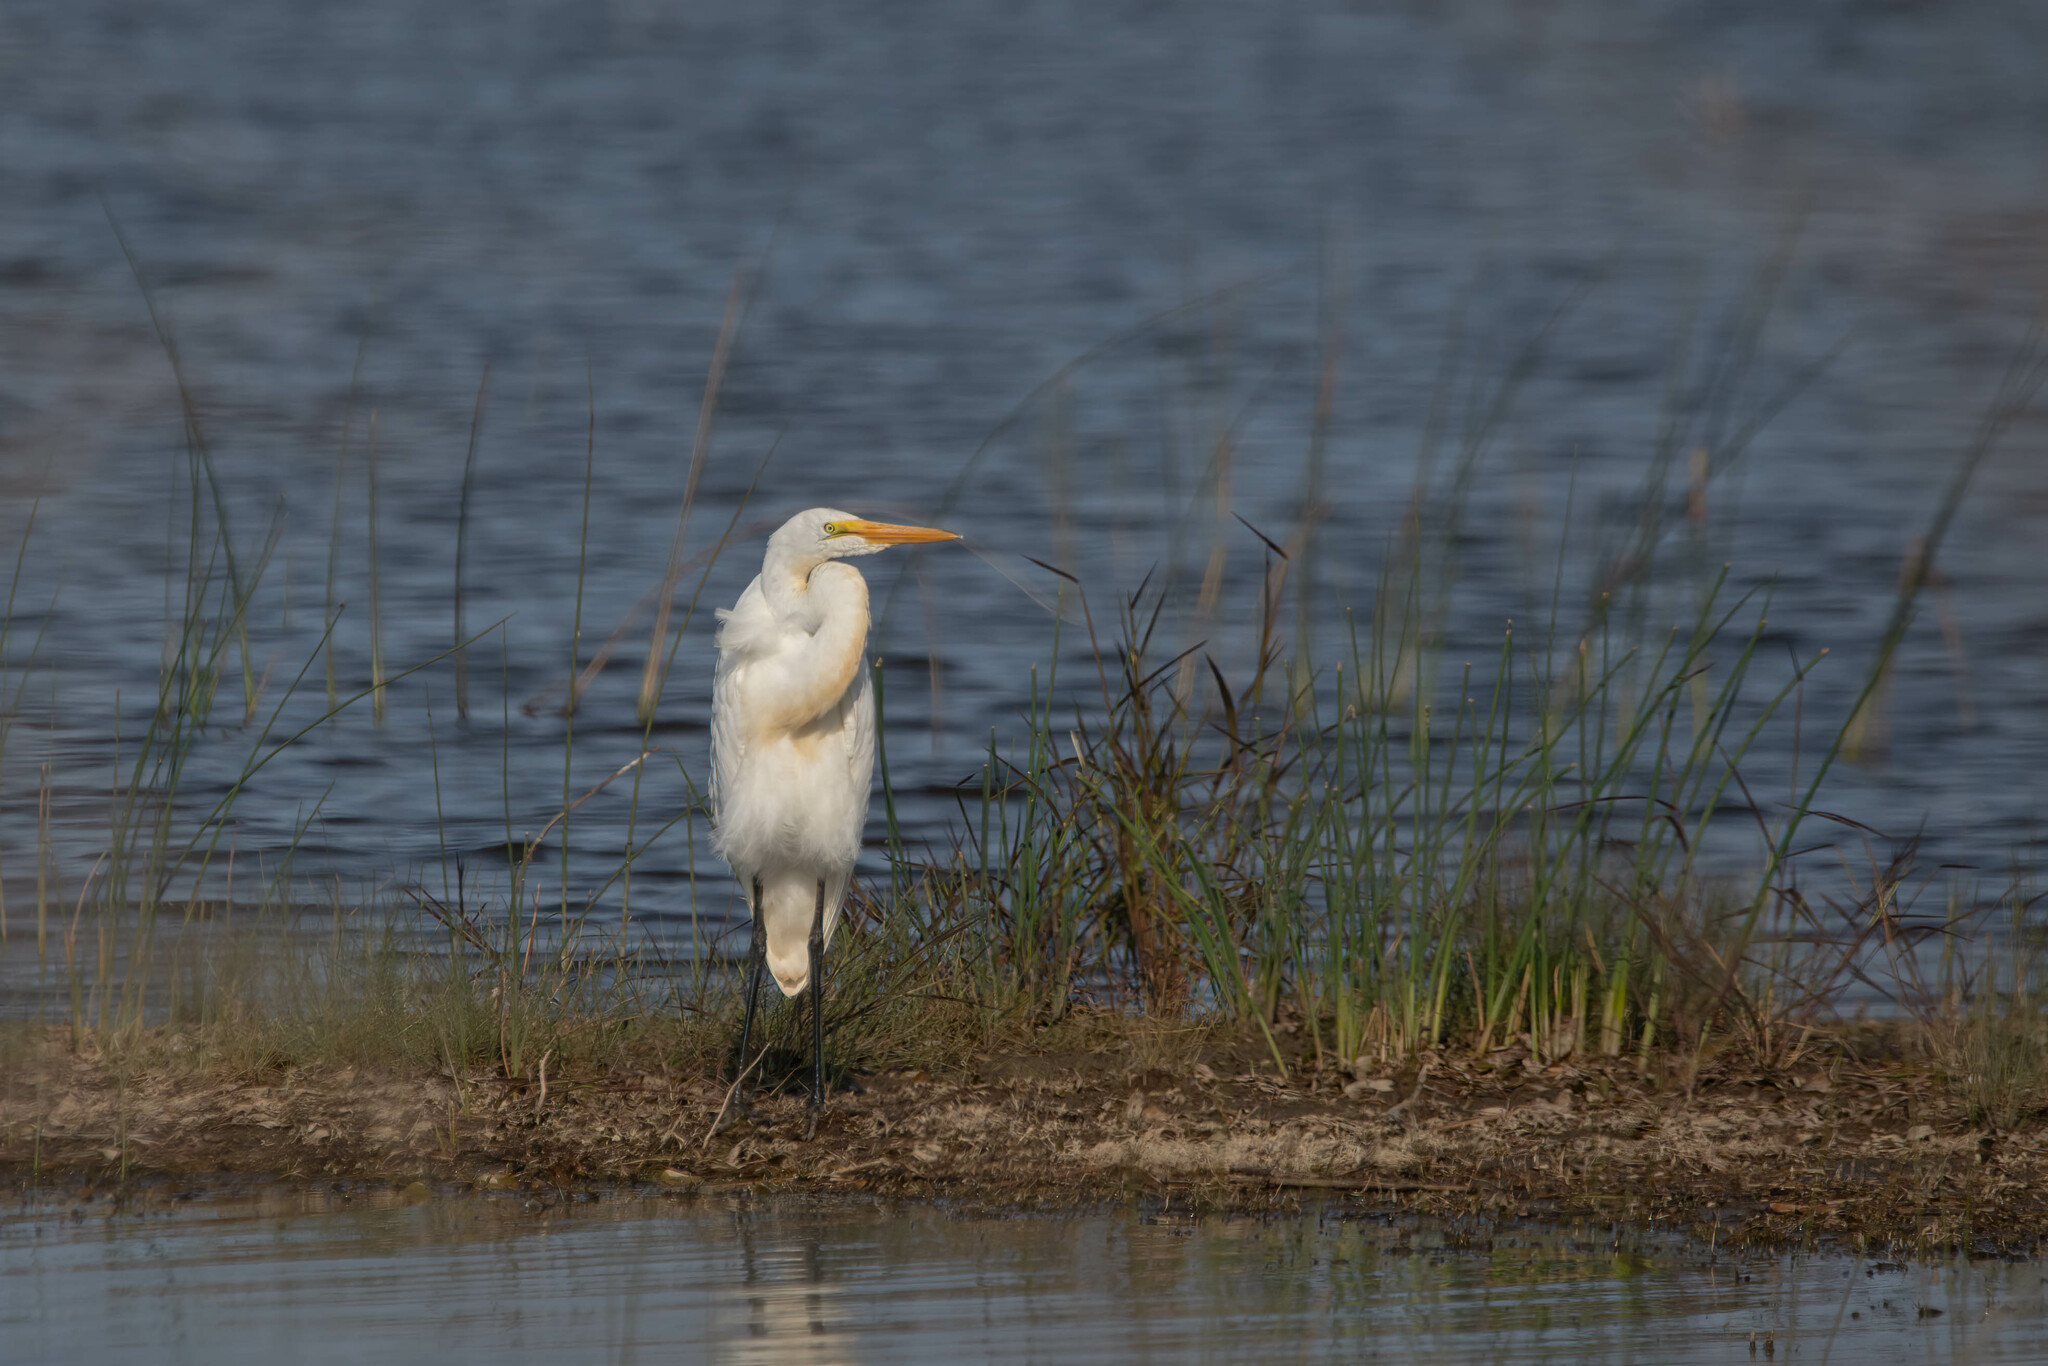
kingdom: Animalia
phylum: Chordata
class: Aves
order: Pelecaniformes
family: Ardeidae
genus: Ardea
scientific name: Ardea alba
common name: Great egret
